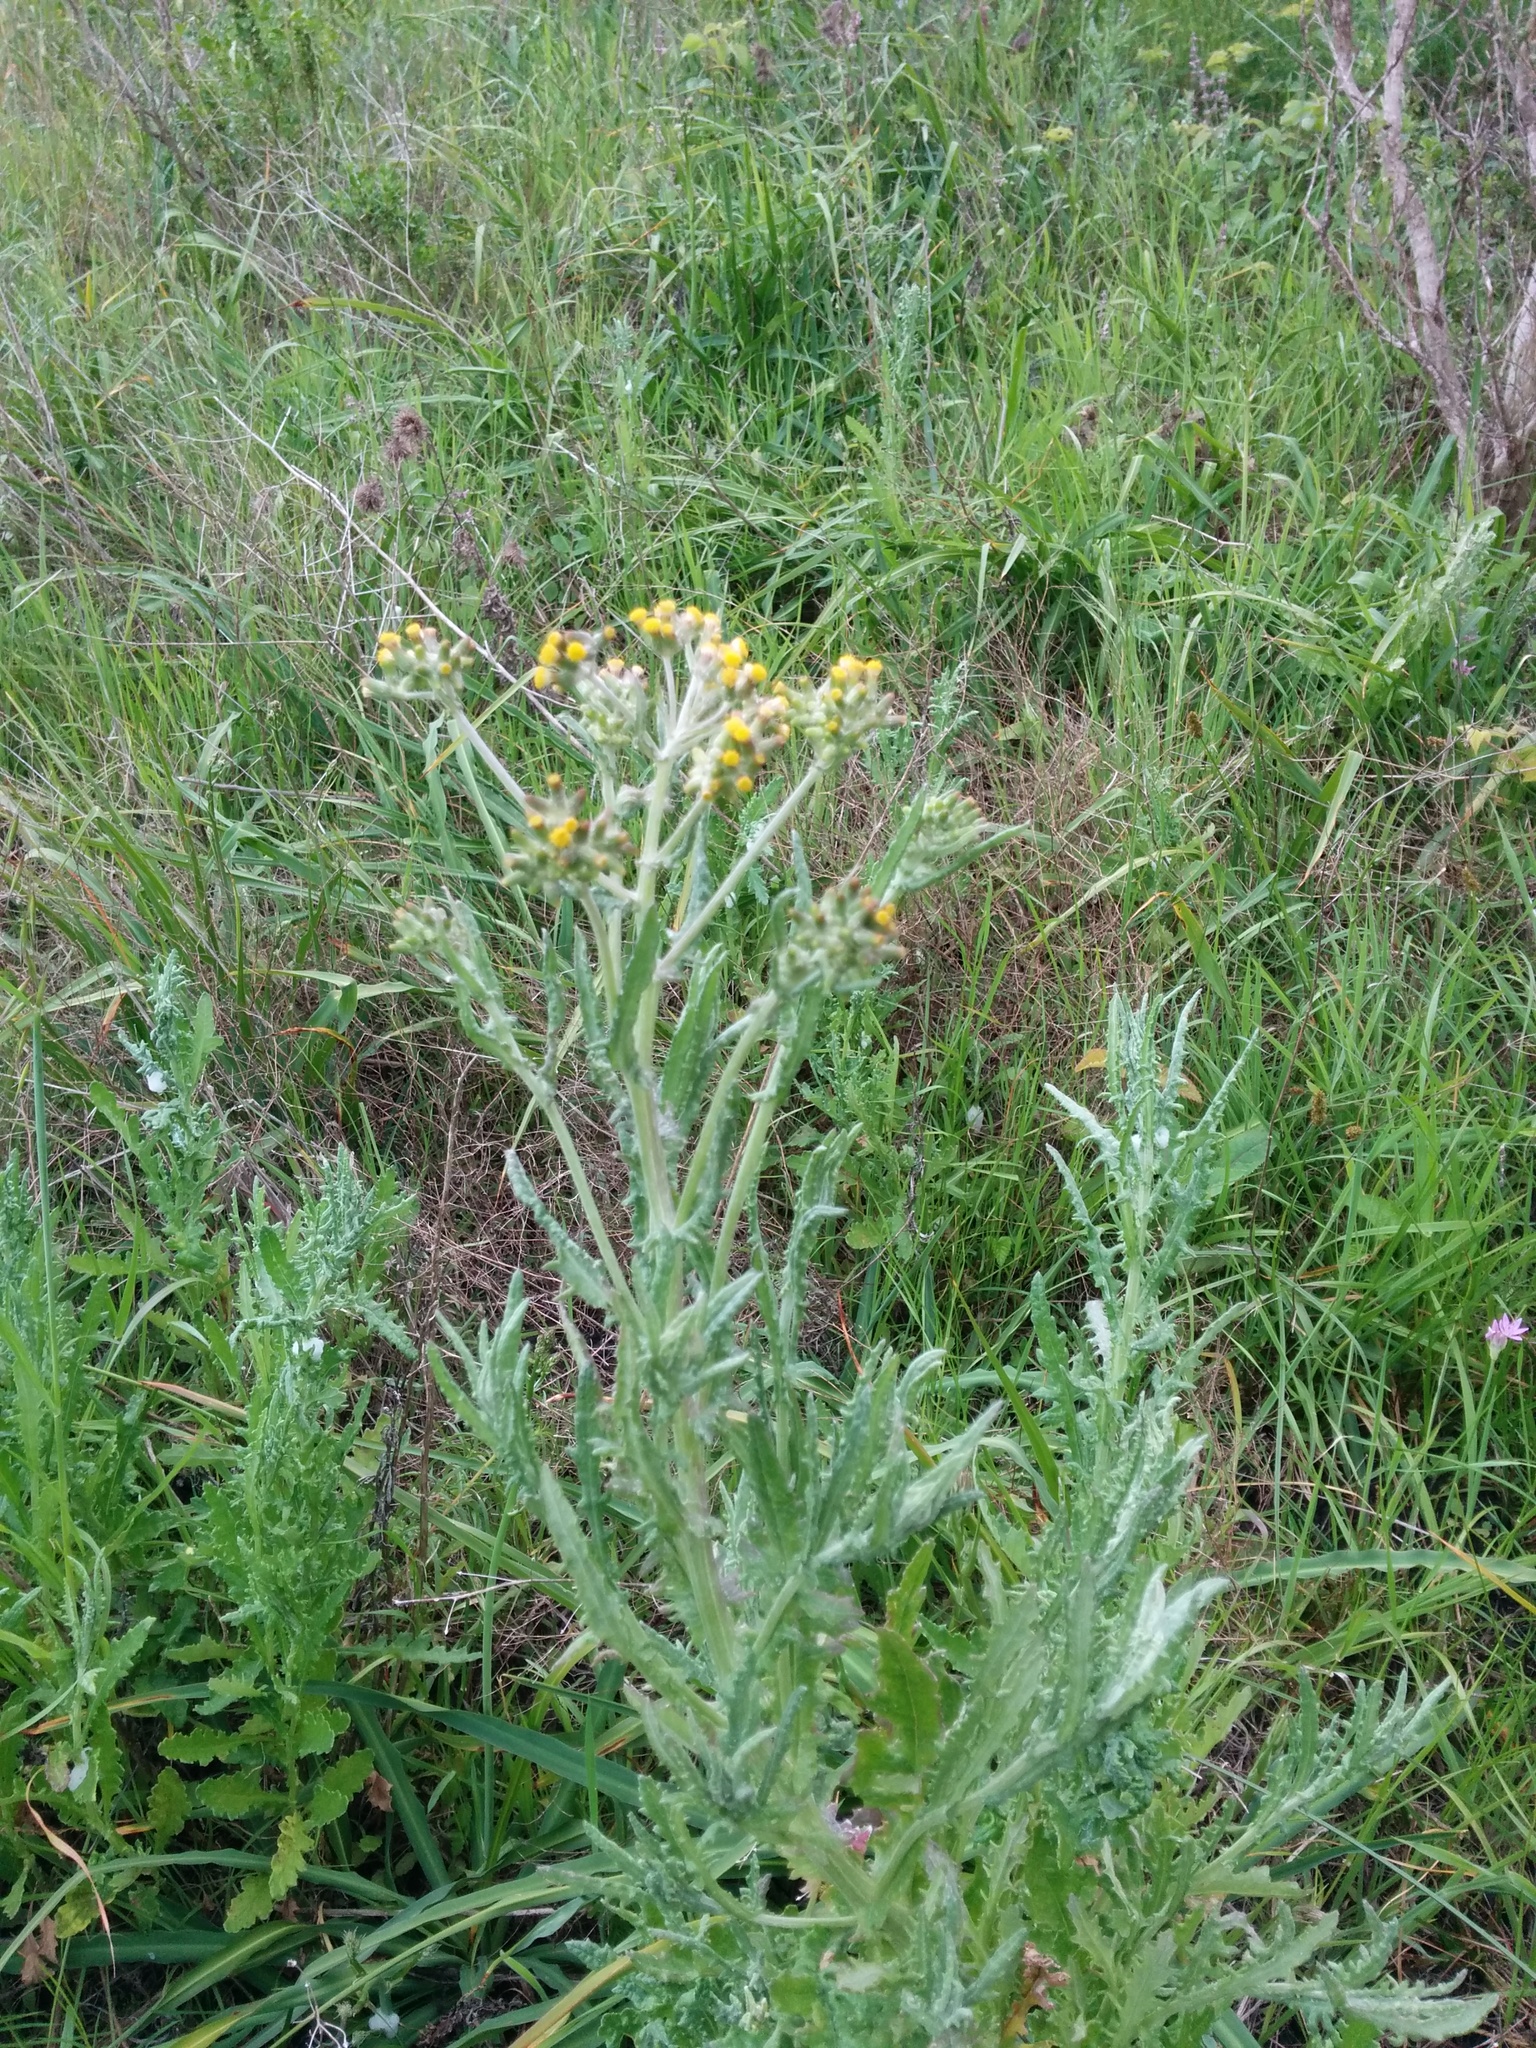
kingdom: Plantae
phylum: Tracheophyta
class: Magnoliopsida
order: Asterales
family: Asteraceae
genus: Senecio
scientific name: Senecio glomeratus
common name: Cutleaf burnweed
